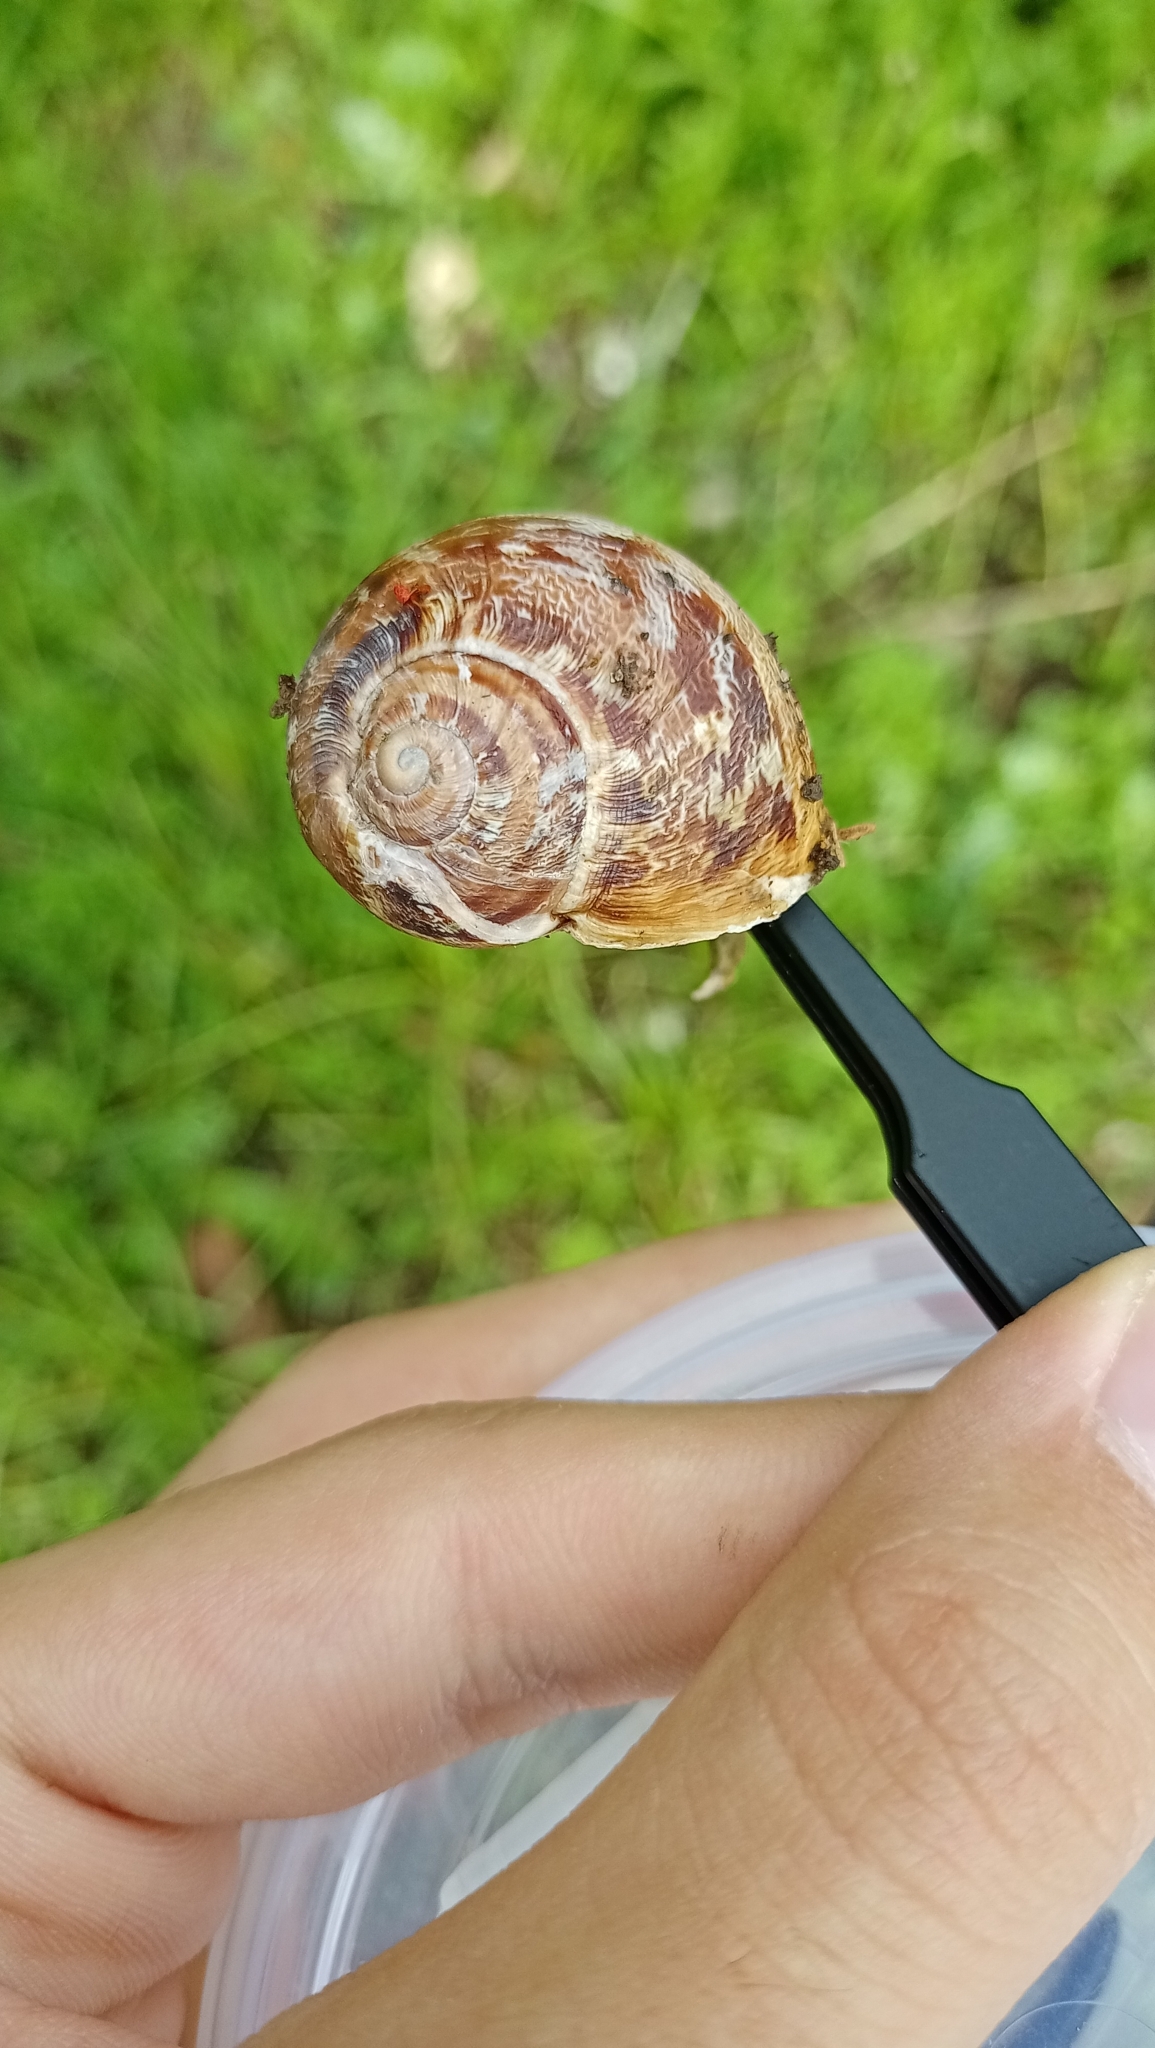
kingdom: Animalia
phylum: Mollusca
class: Gastropoda
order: Stylommatophora
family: Helicidae
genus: Cornu
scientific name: Cornu aspersum
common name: Brown garden snail
